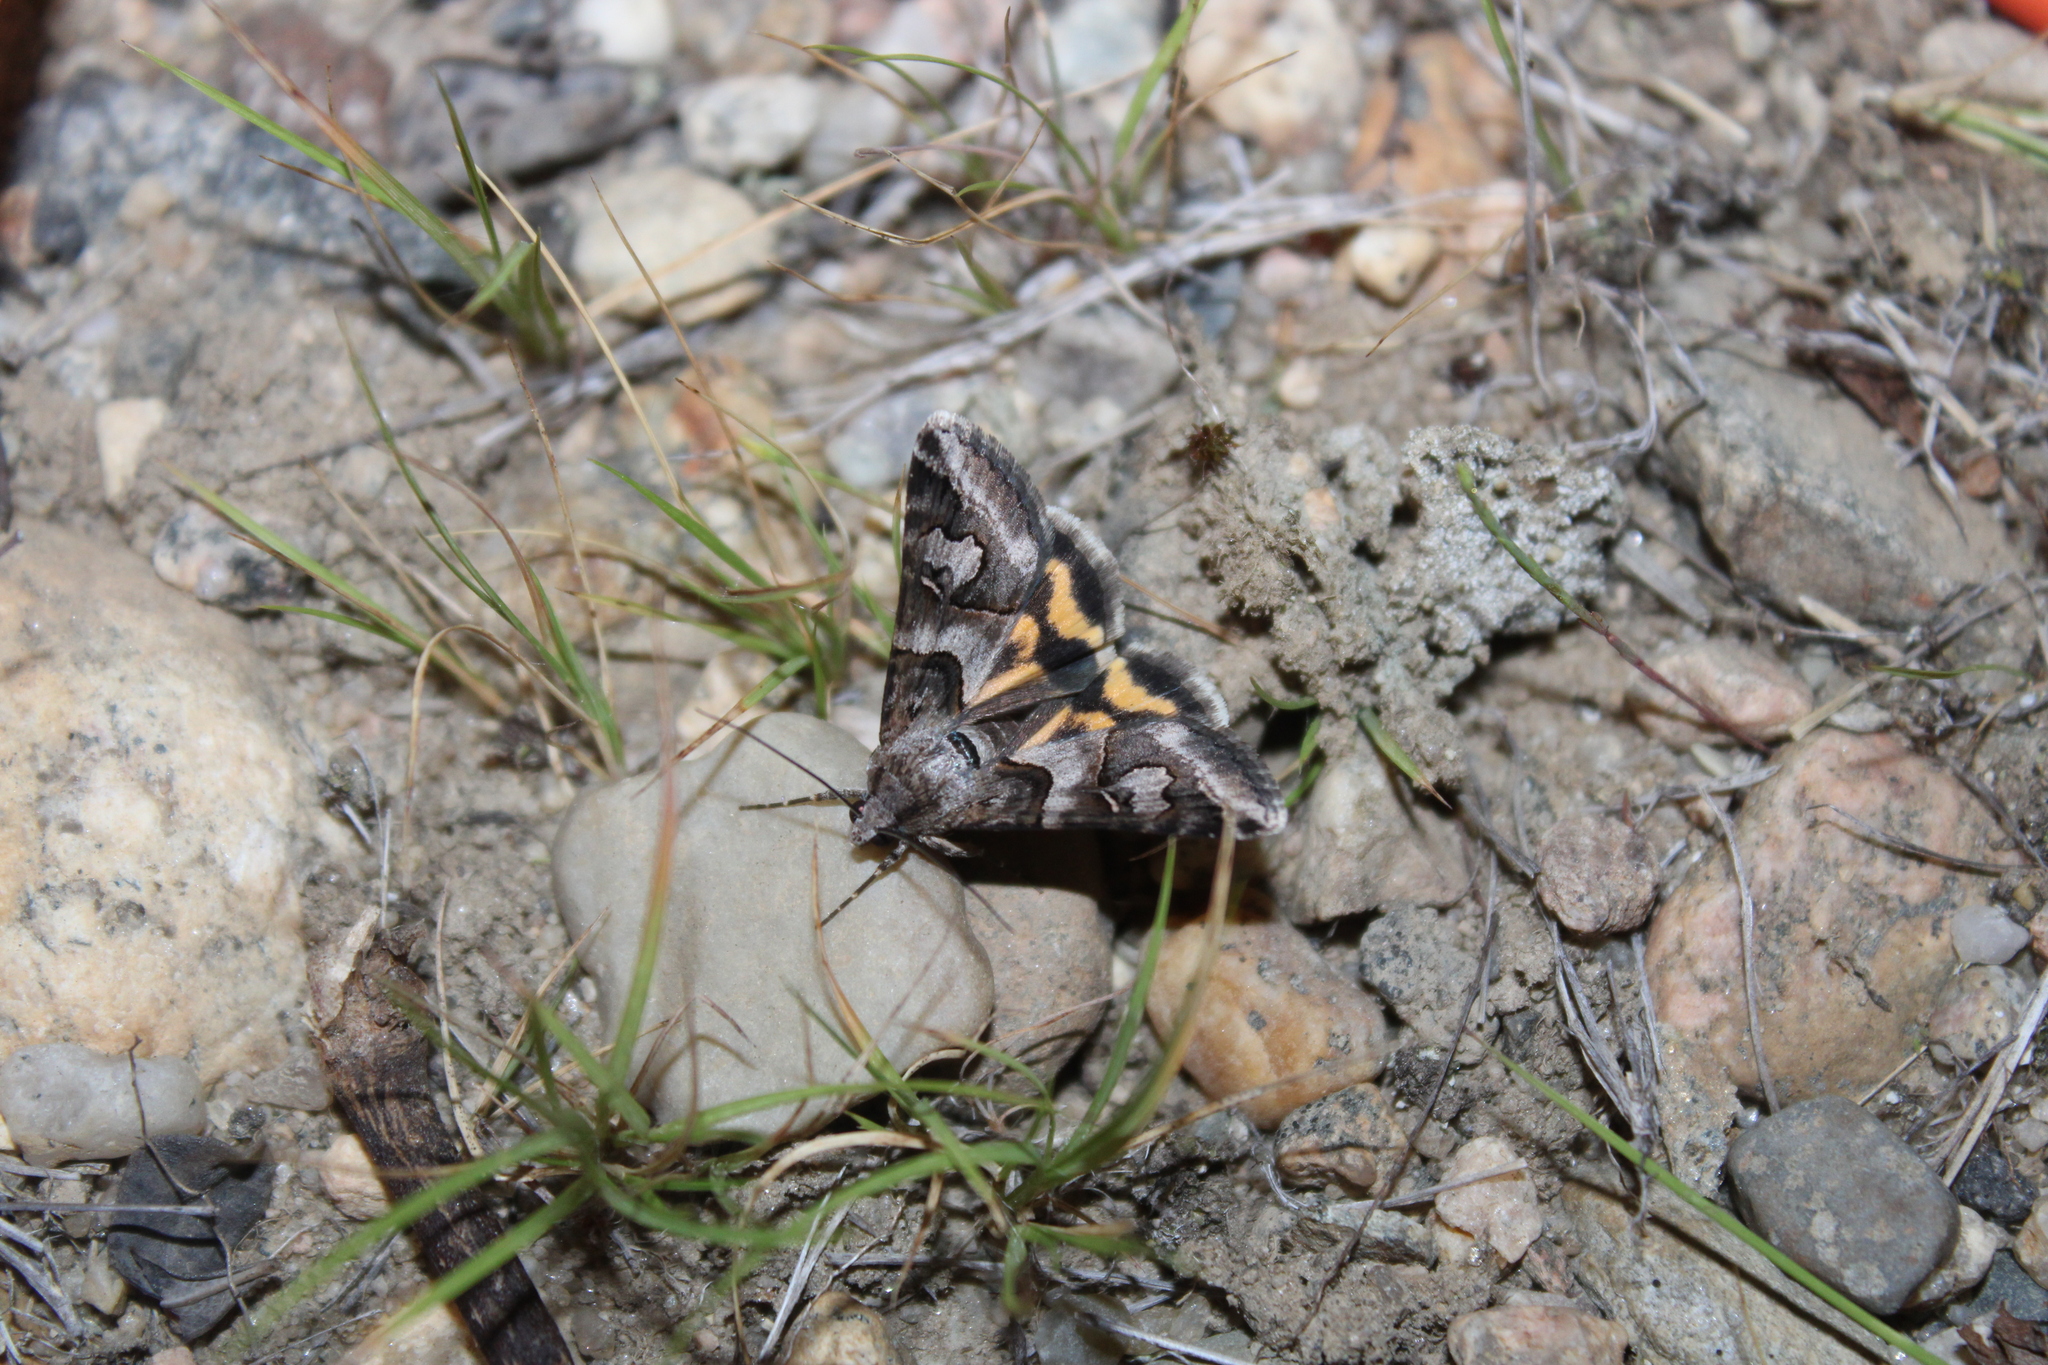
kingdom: Animalia
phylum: Arthropoda
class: Insecta
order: Lepidoptera
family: Erebidae
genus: Drasteria
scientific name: Drasteria graphica
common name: Coastal graphic
